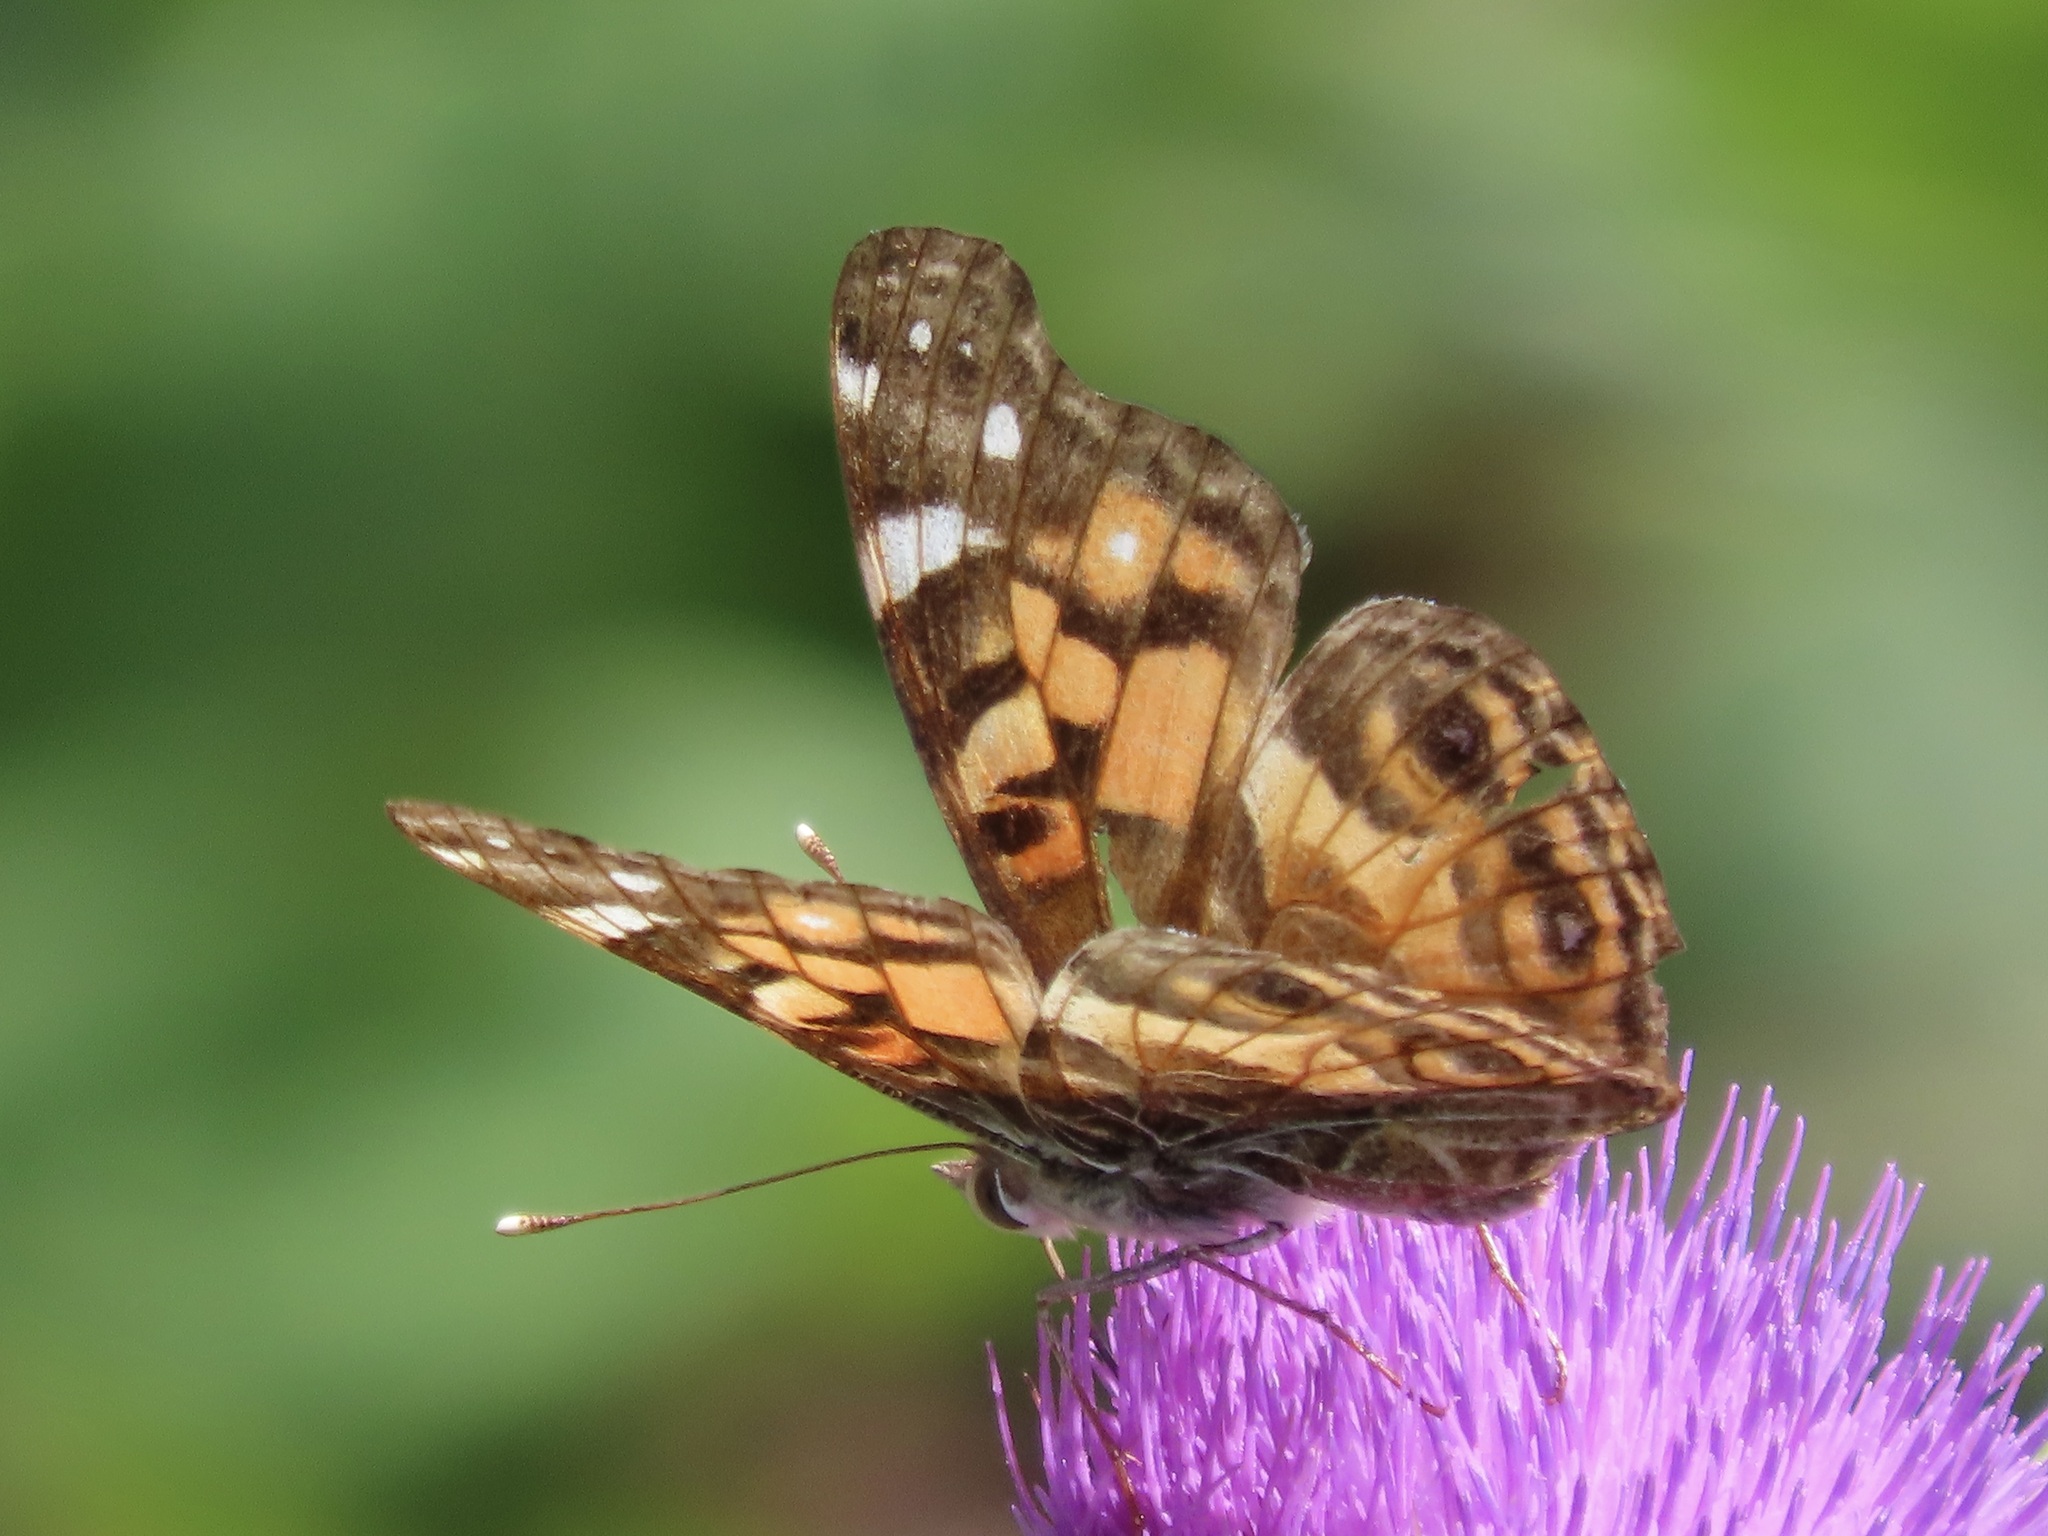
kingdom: Animalia
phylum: Arthropoda
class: Insecta
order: Lepidoptera
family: Nymphalidae
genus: Vanessa
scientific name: Vanessa virginiensis
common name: American lady
